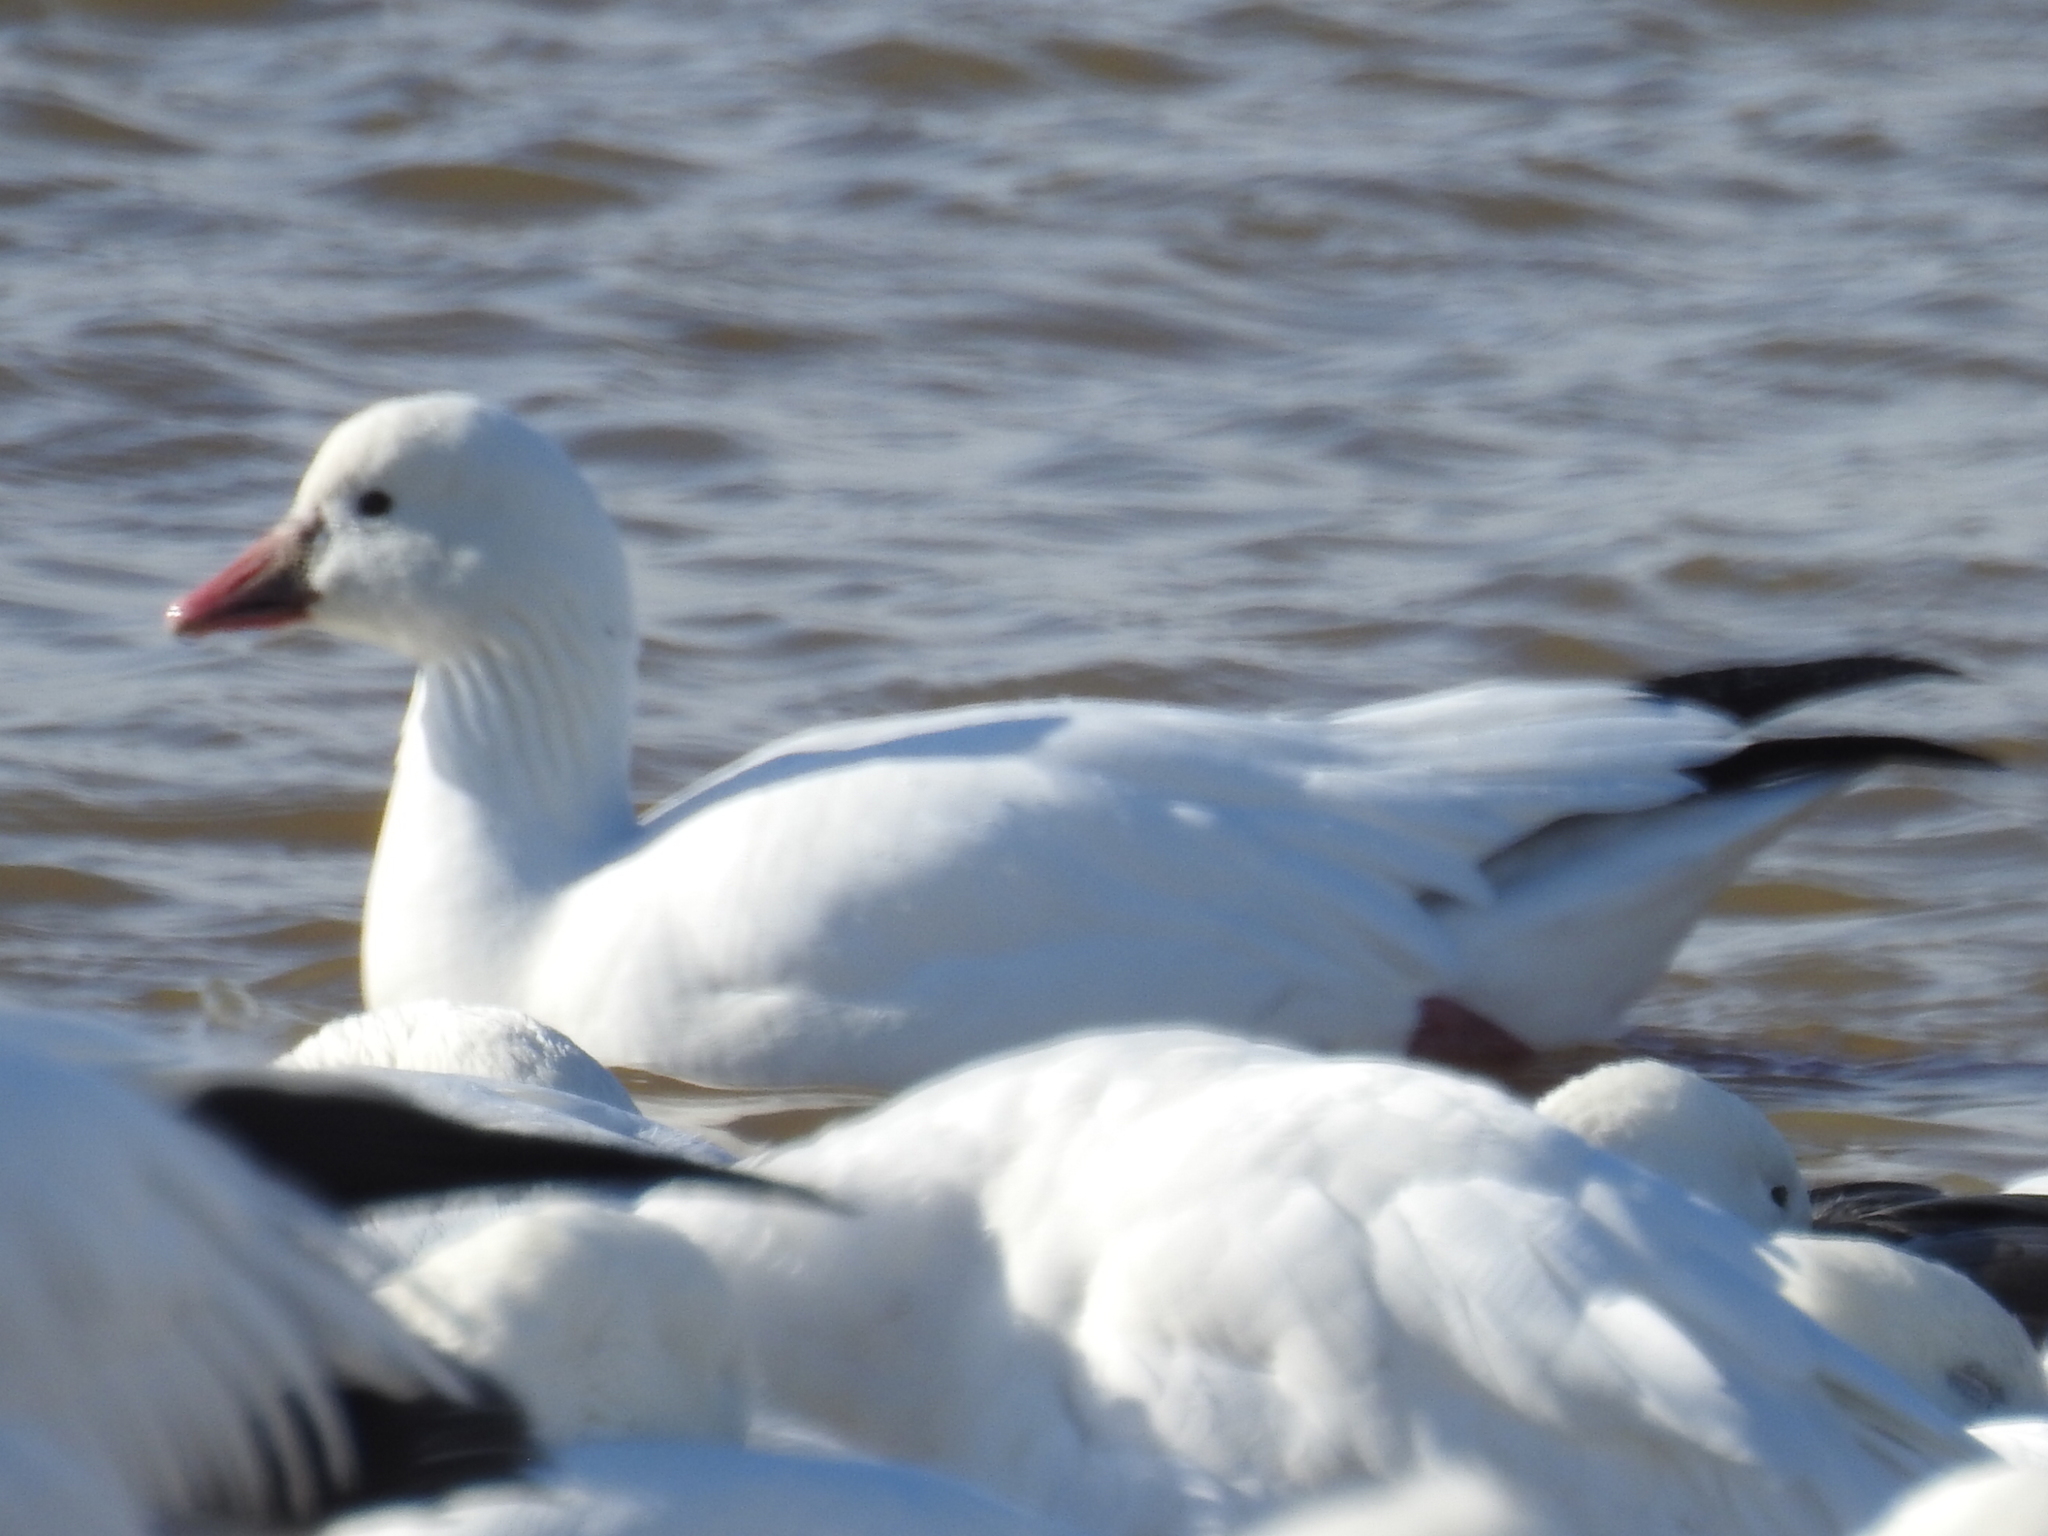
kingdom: Animalia
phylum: Chordata
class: Aves
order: Anseriformes
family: Anatidae
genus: Anser
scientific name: Anser rossii
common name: Ross's goose
